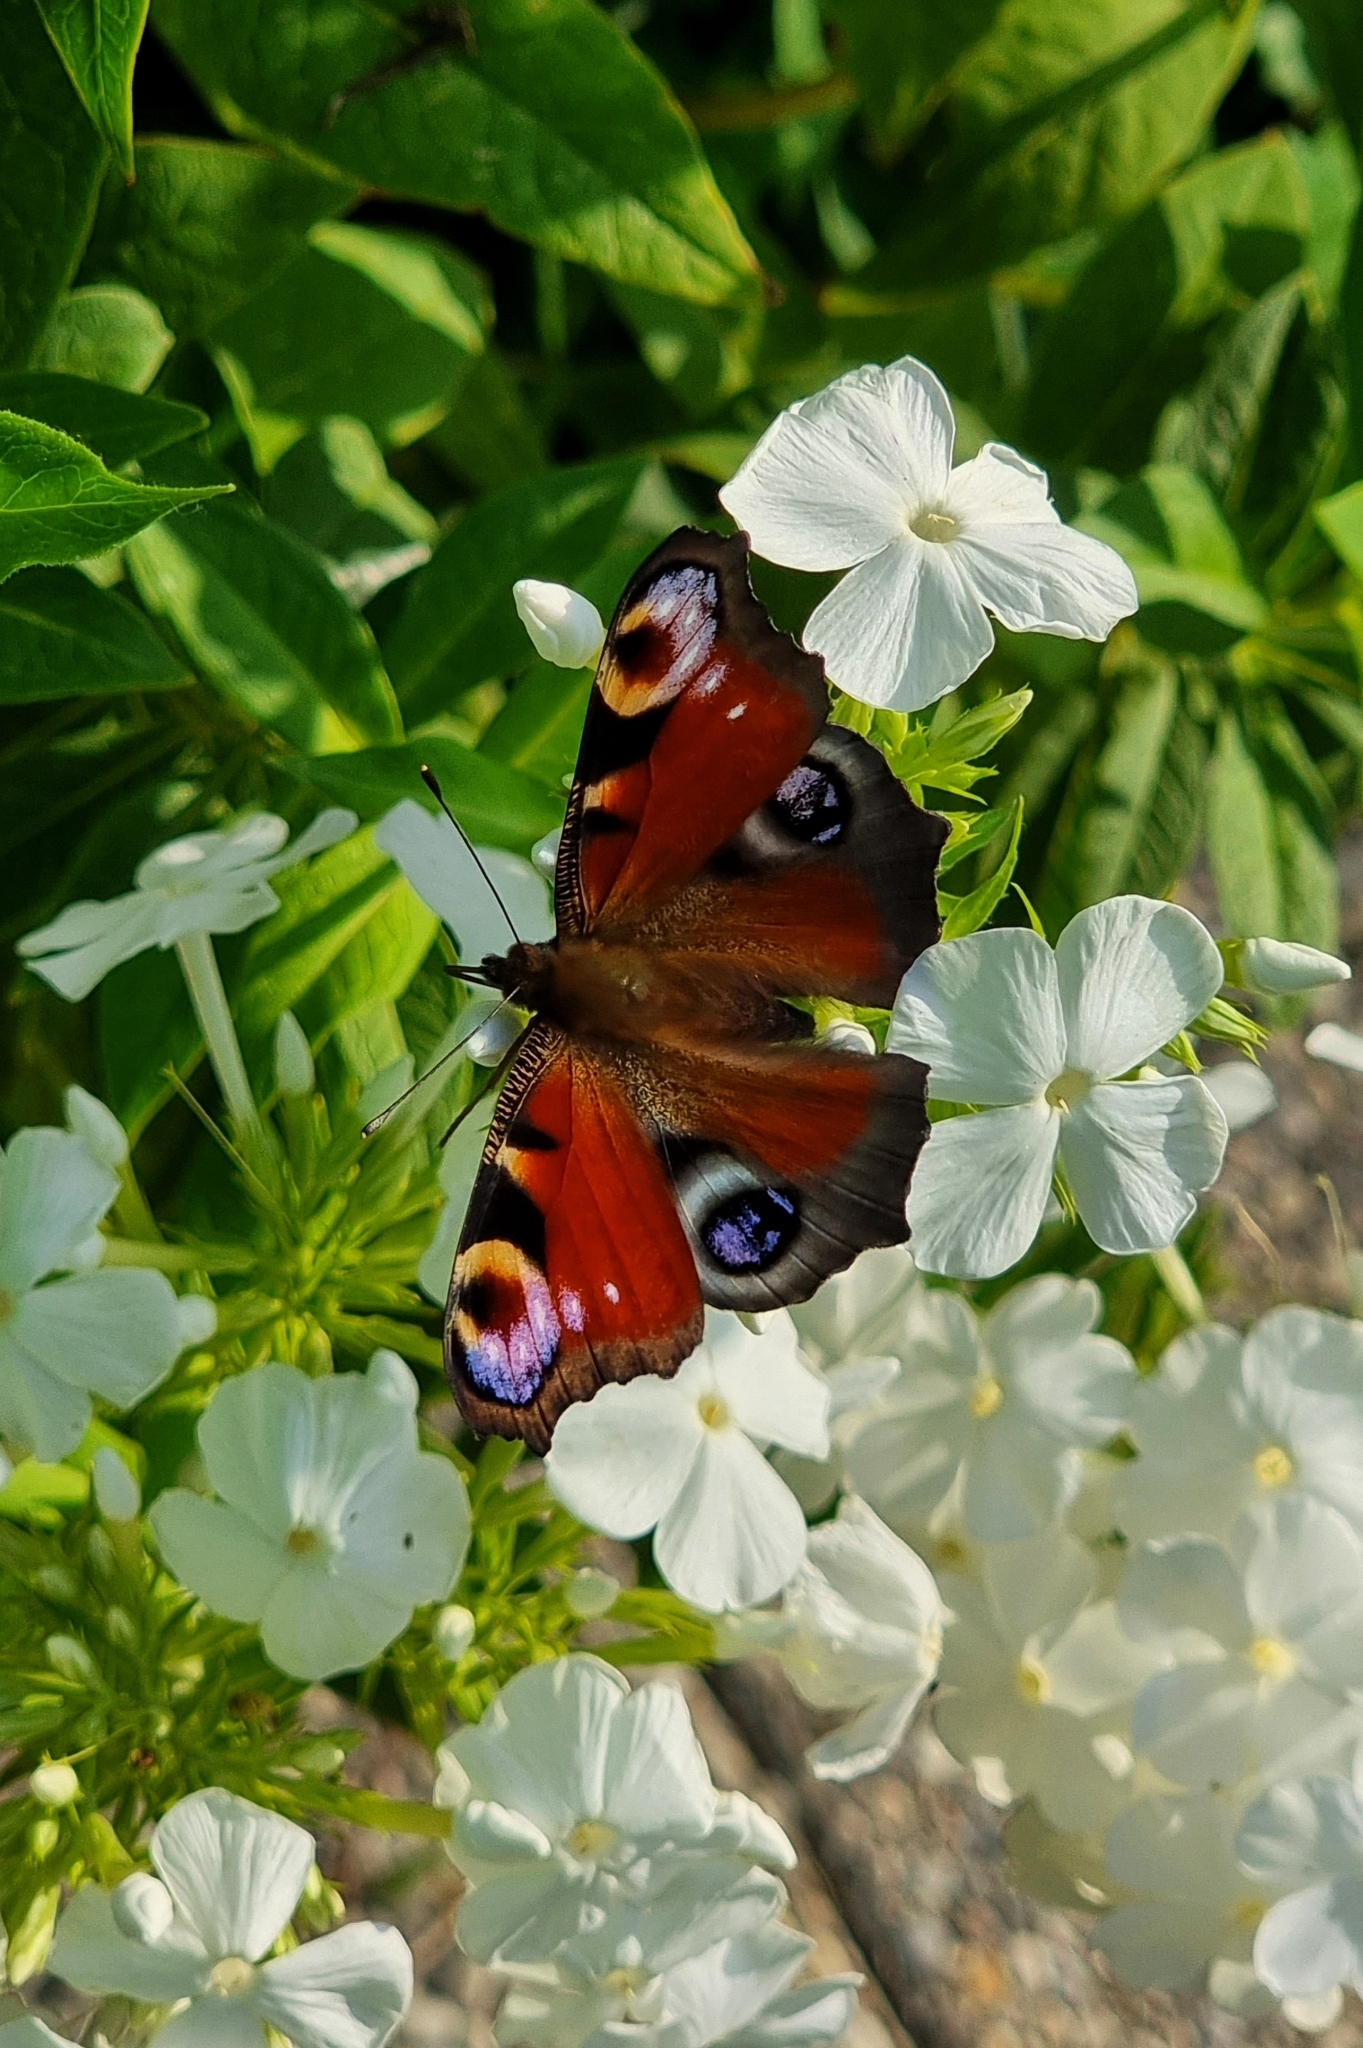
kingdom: Animalia
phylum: Arthropoda
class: Insecta
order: Lepidoptera
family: Nymphalidae
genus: Aglais
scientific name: Aglais io
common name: Peacock
